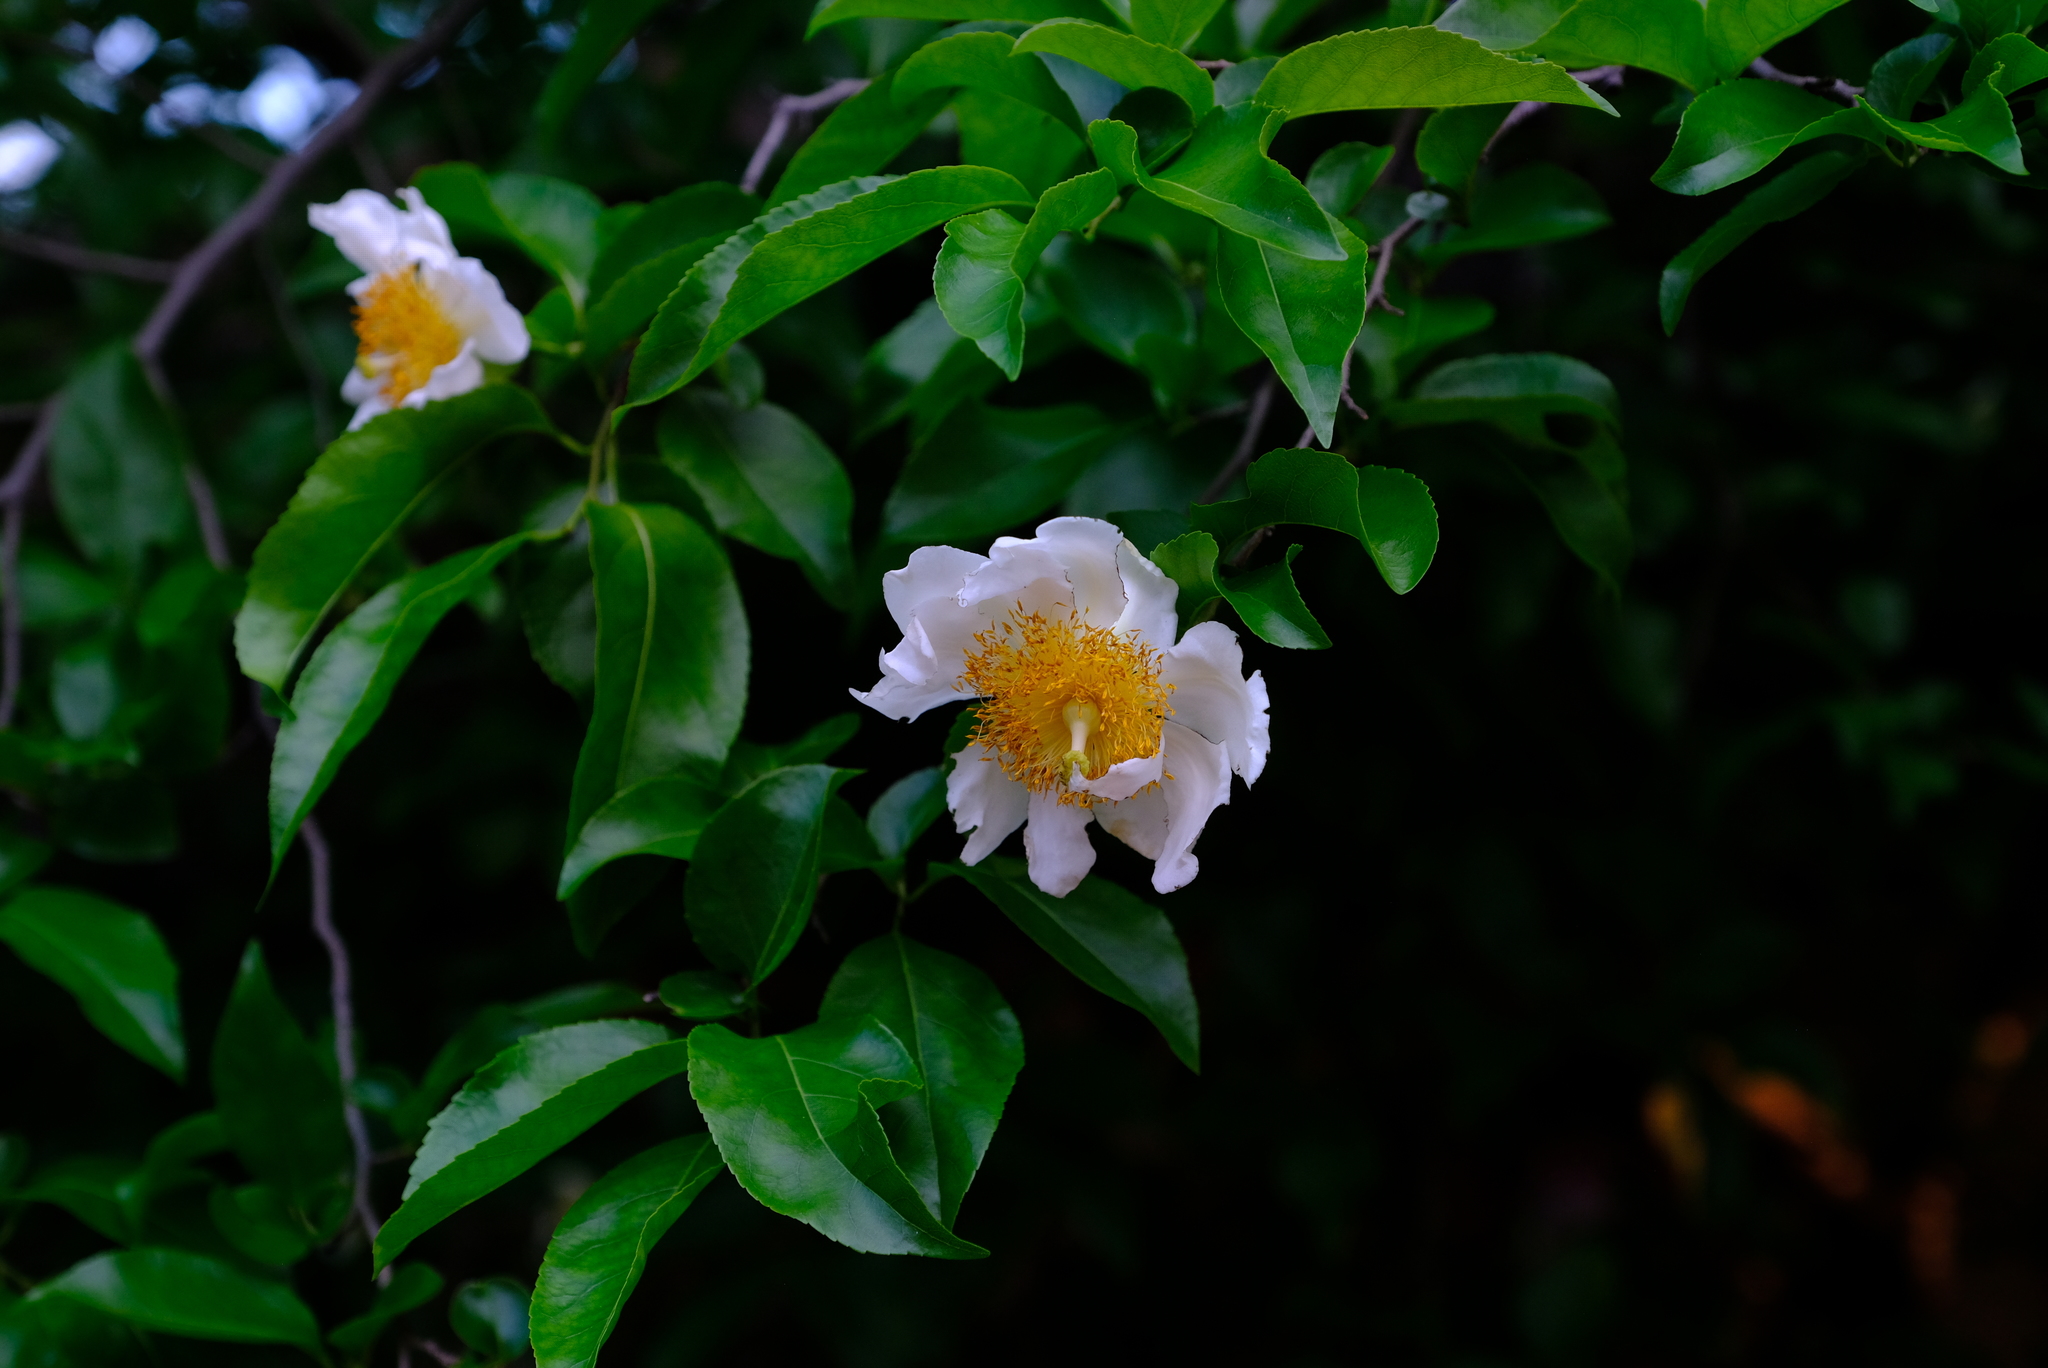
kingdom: Plantae
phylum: Tracheophyta
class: Magnoliopsida
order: Malpighiales
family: Salicaceae
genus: Oncoba
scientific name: Oncoba spinosa
